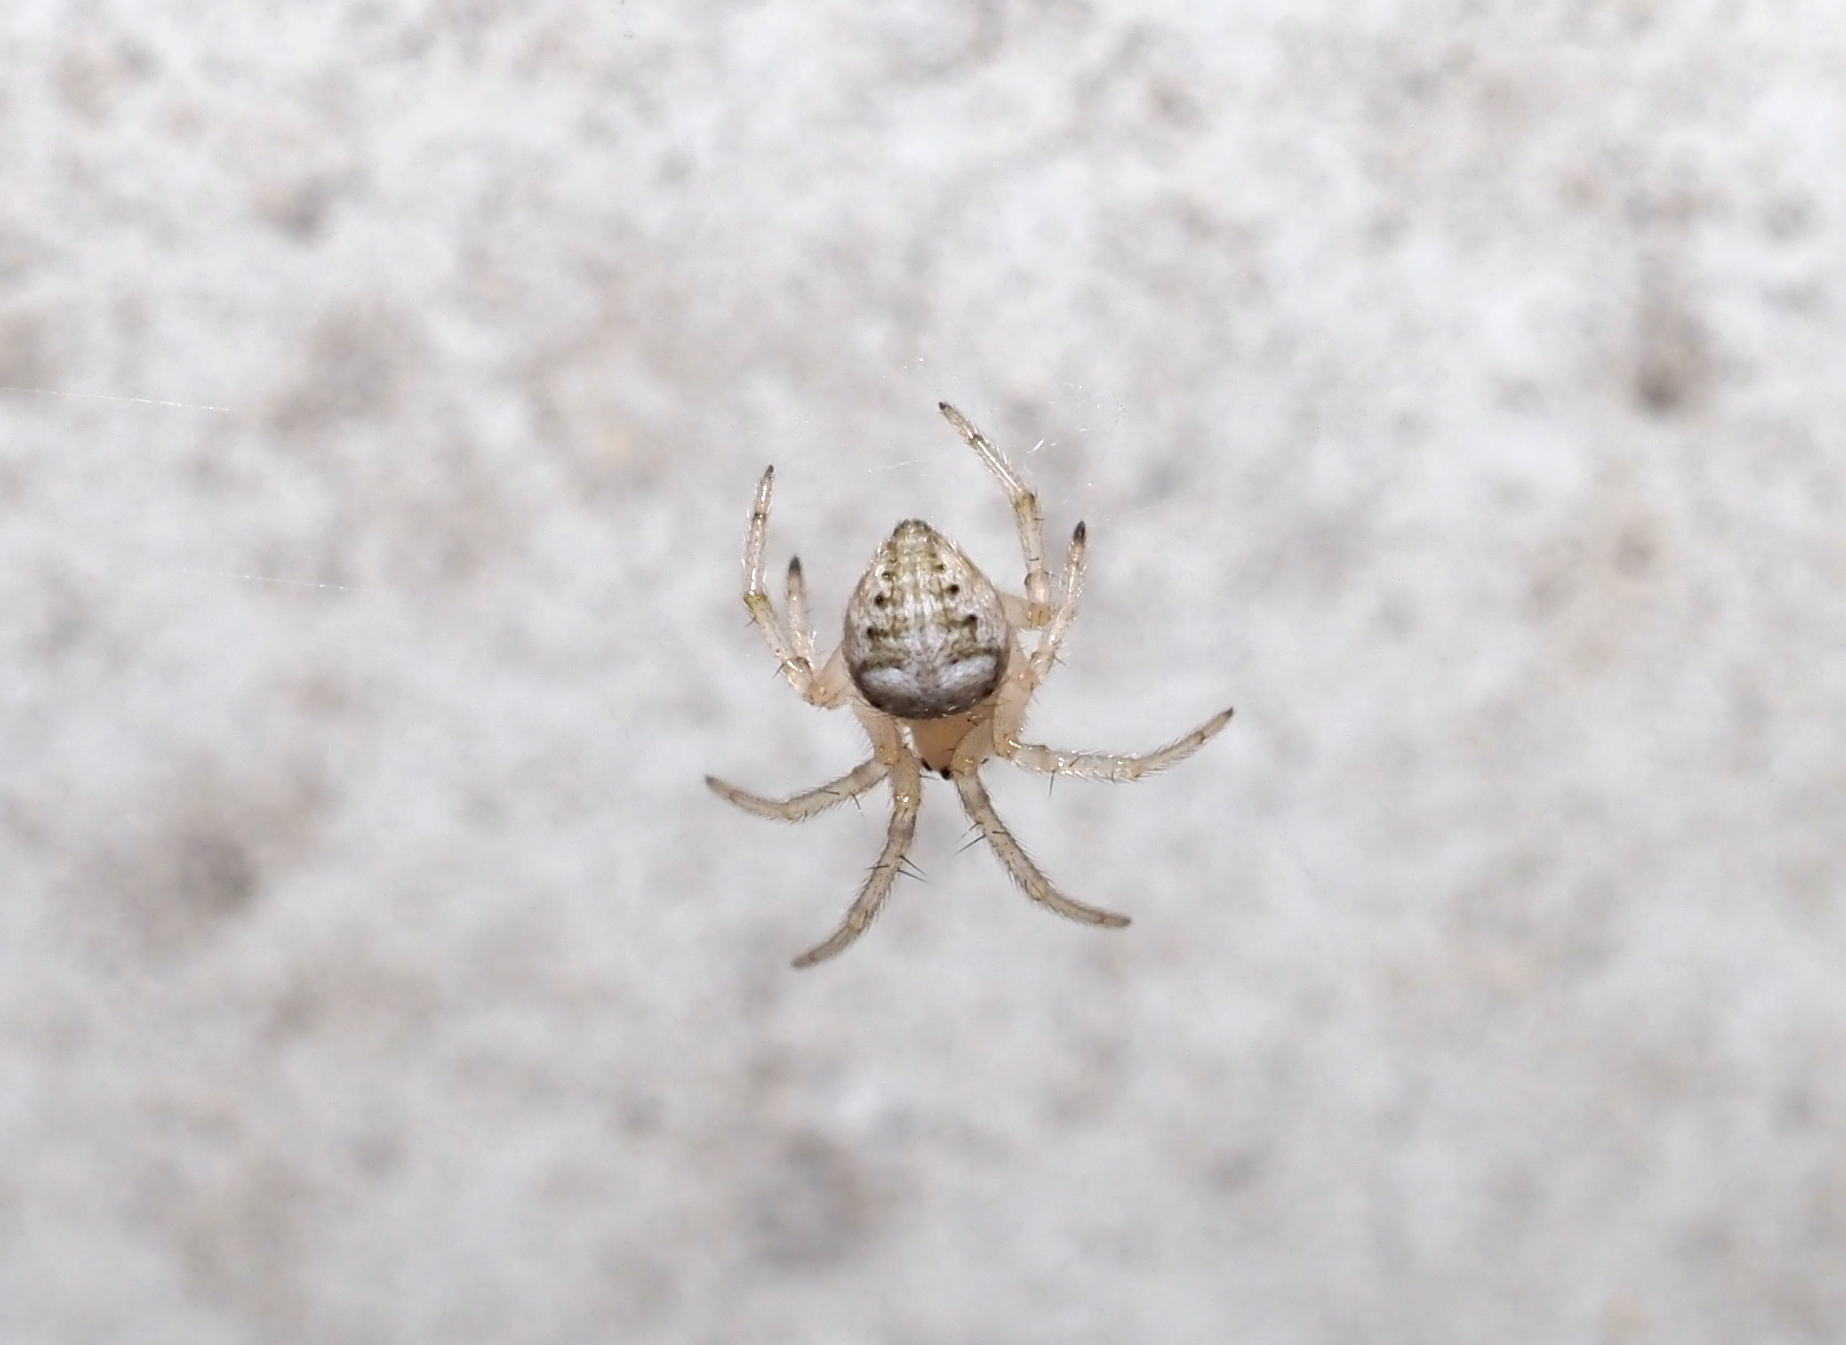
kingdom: Animalia
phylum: Arthropoda
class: Arachnida
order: Araneae
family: Araneidae
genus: Araneus
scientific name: Araneus pegnia
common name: Orb weavers
